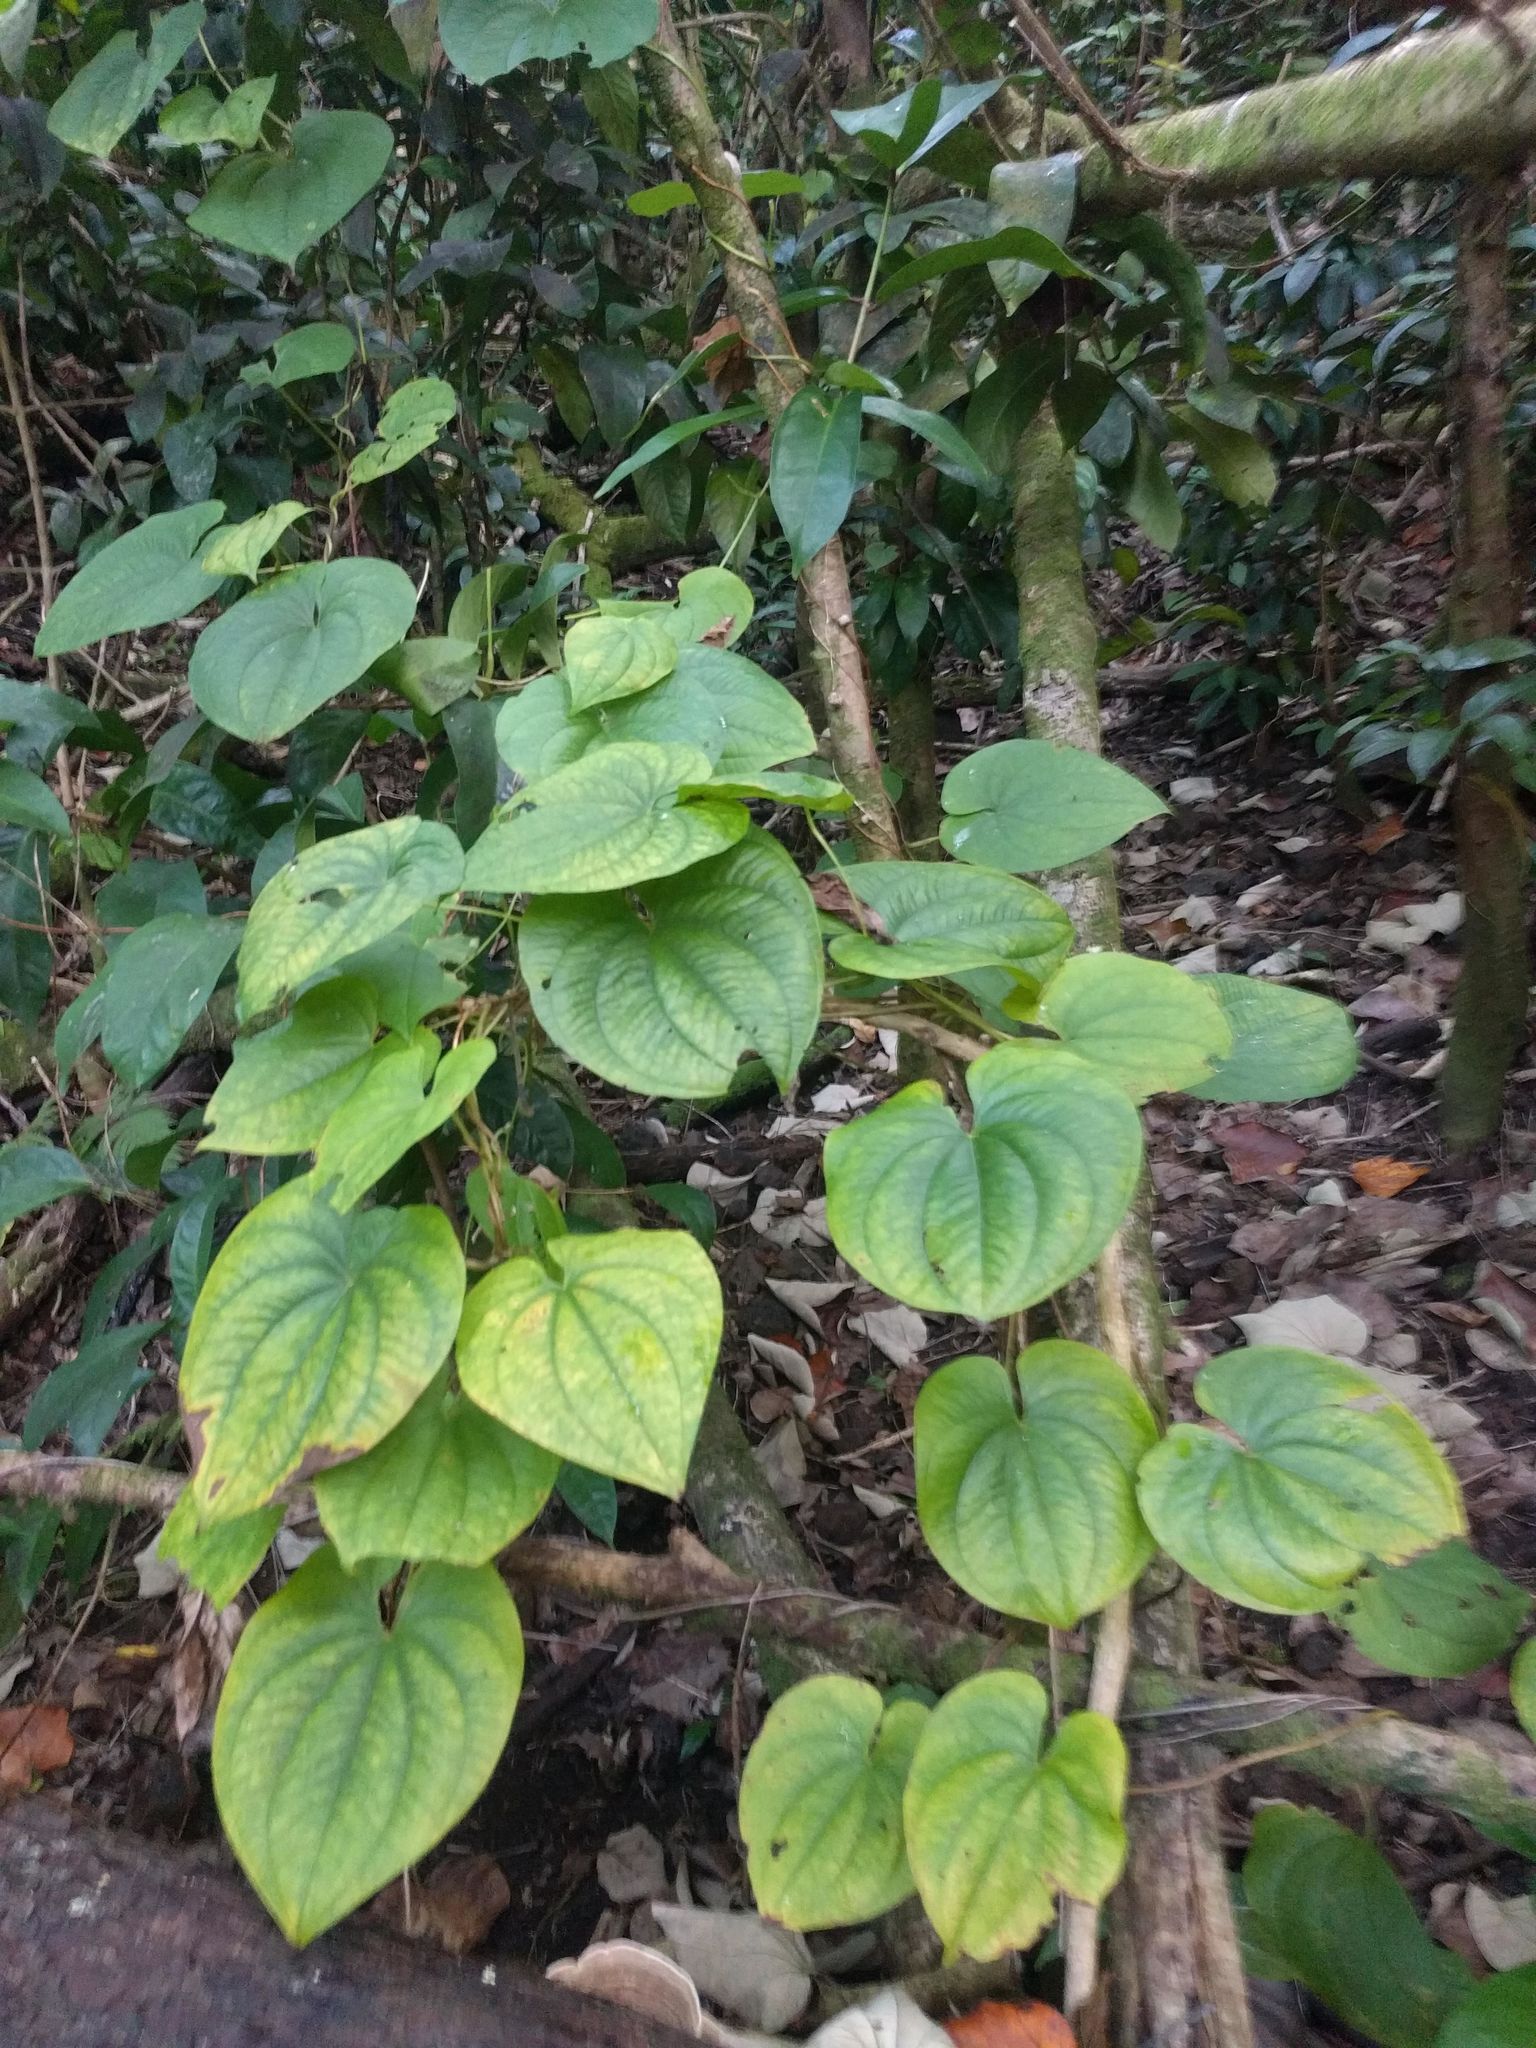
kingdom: Plantae
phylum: Tracheophyta
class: Liliopsida
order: Dioscoreales
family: Dioscoreaceae
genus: Dioscorea
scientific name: Dioscorea bulbifera
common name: Air yam
